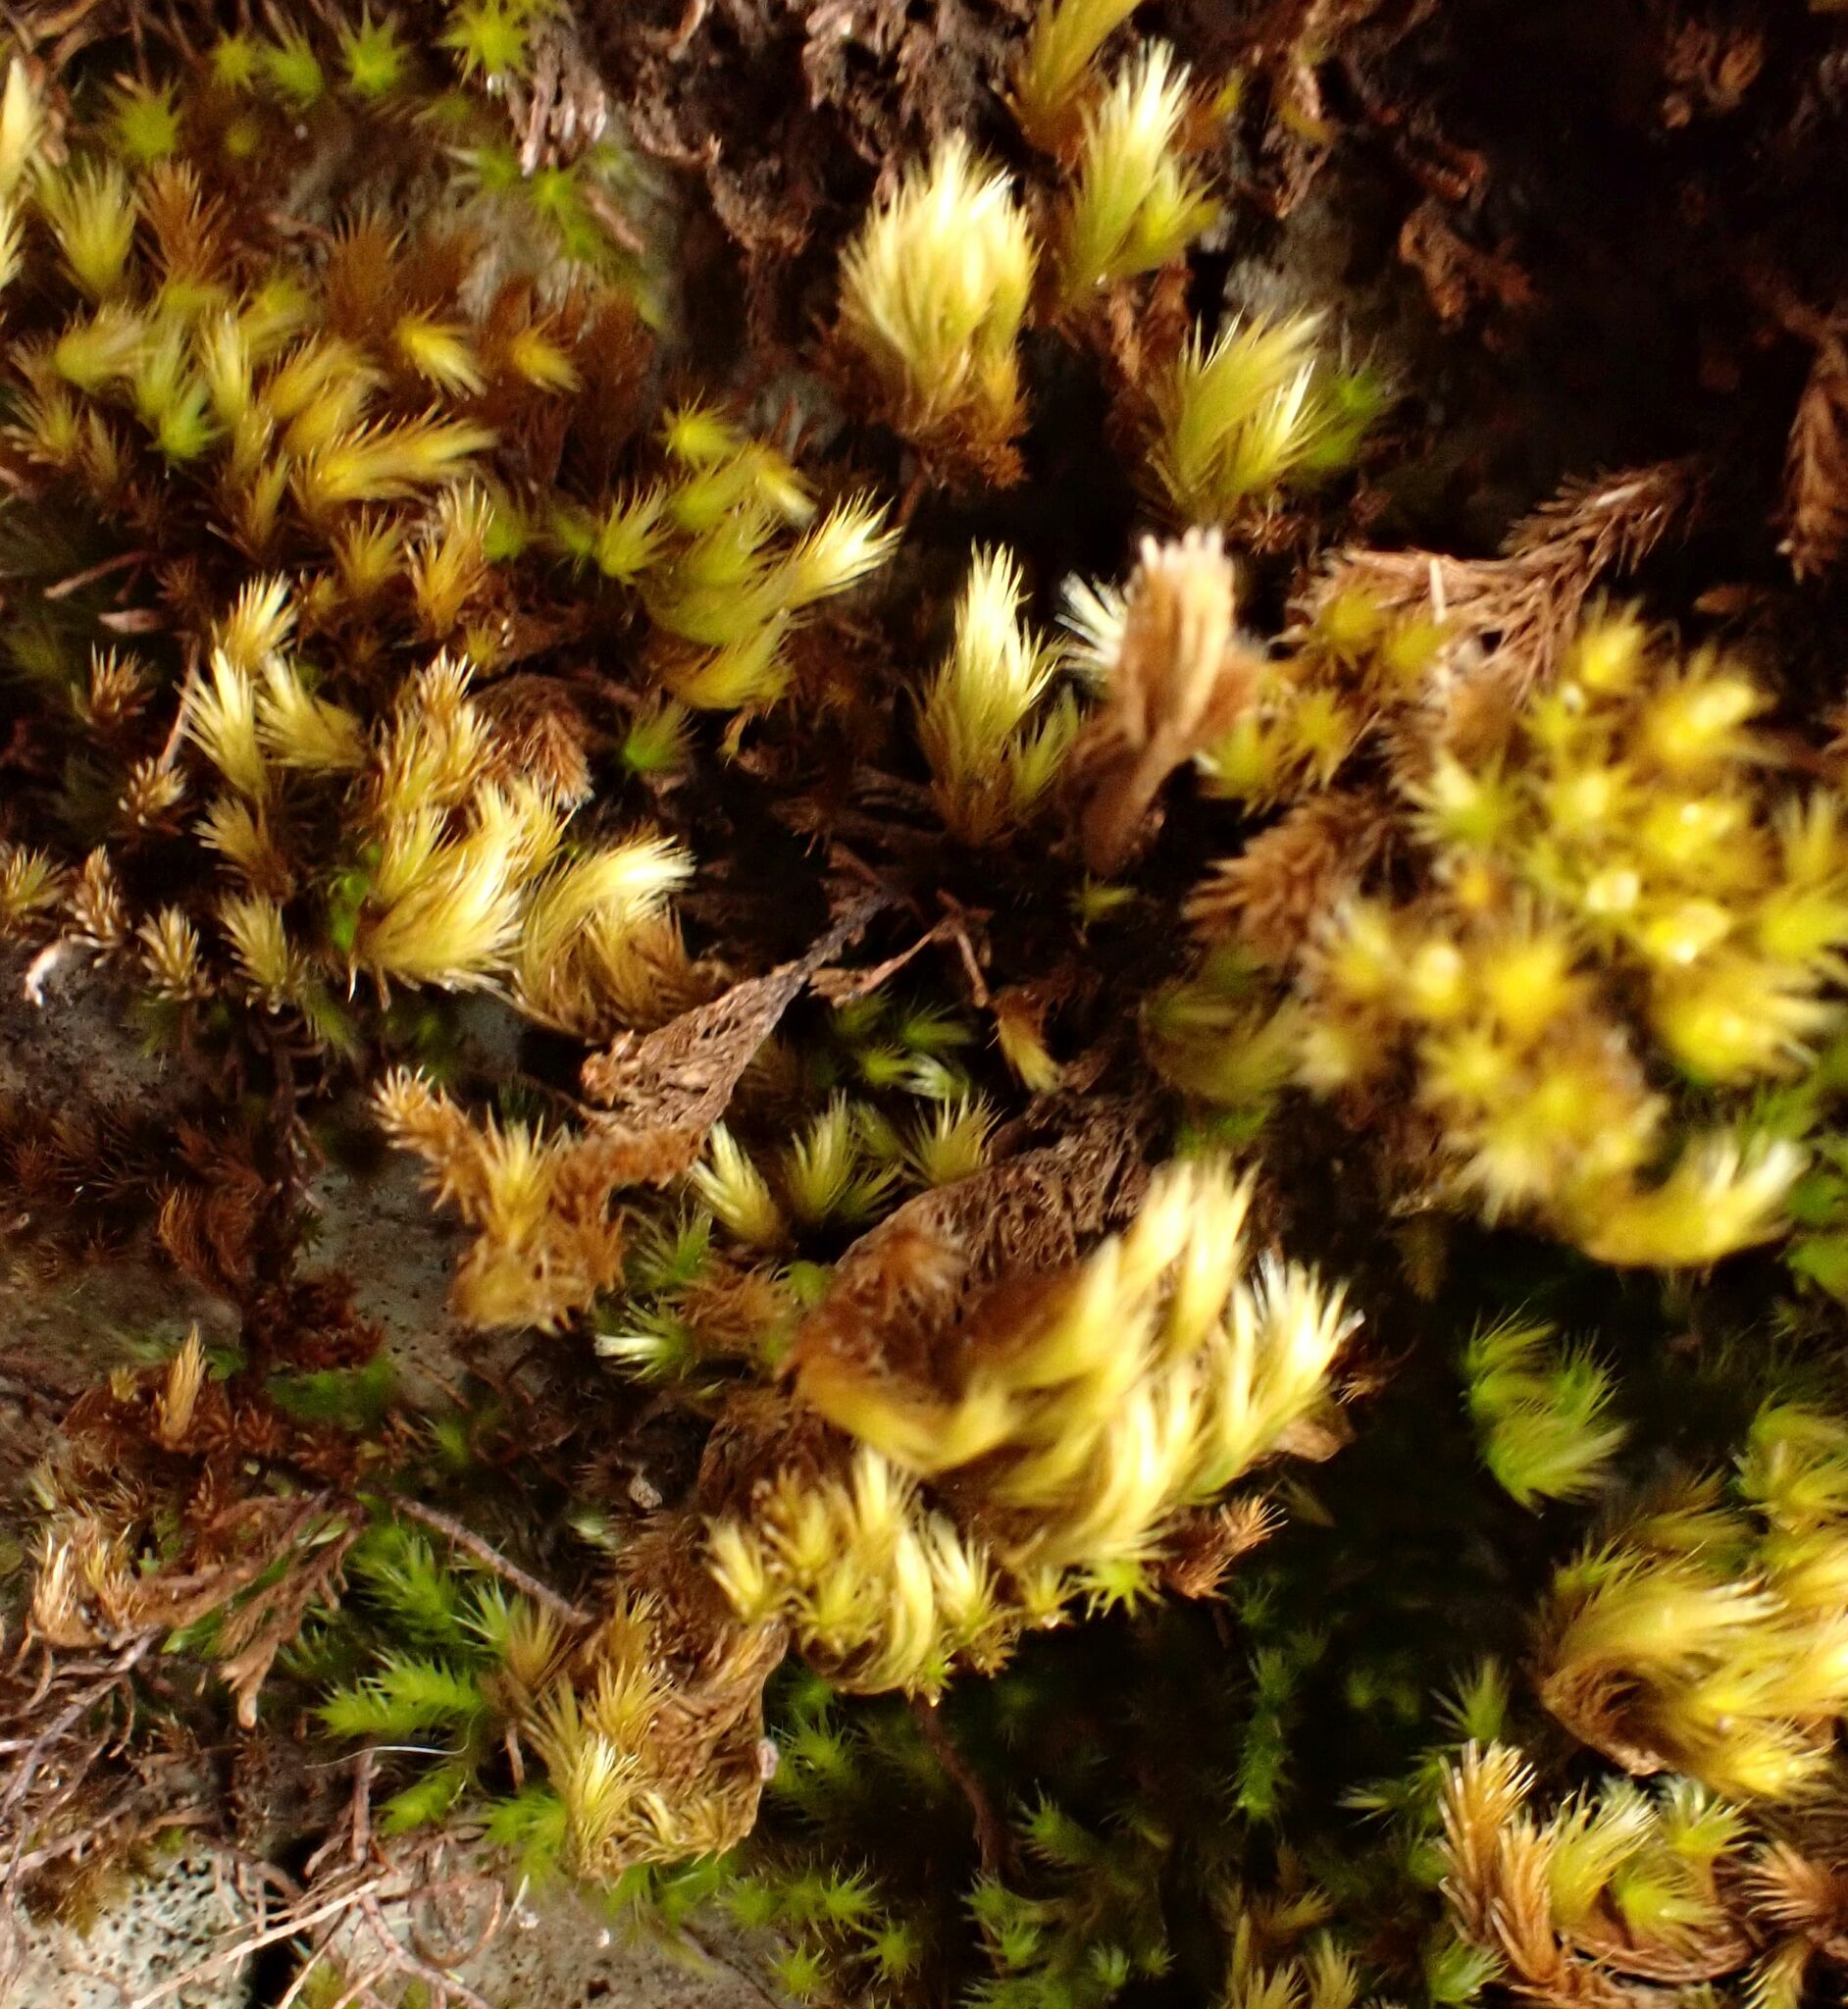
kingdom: Plantae
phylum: Bryophyta
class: Bryopsida
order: Hypnales
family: Brachytheciaceae
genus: Homalothecium
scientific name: Homalothecium sericeum
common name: Silky wall feather-moss
